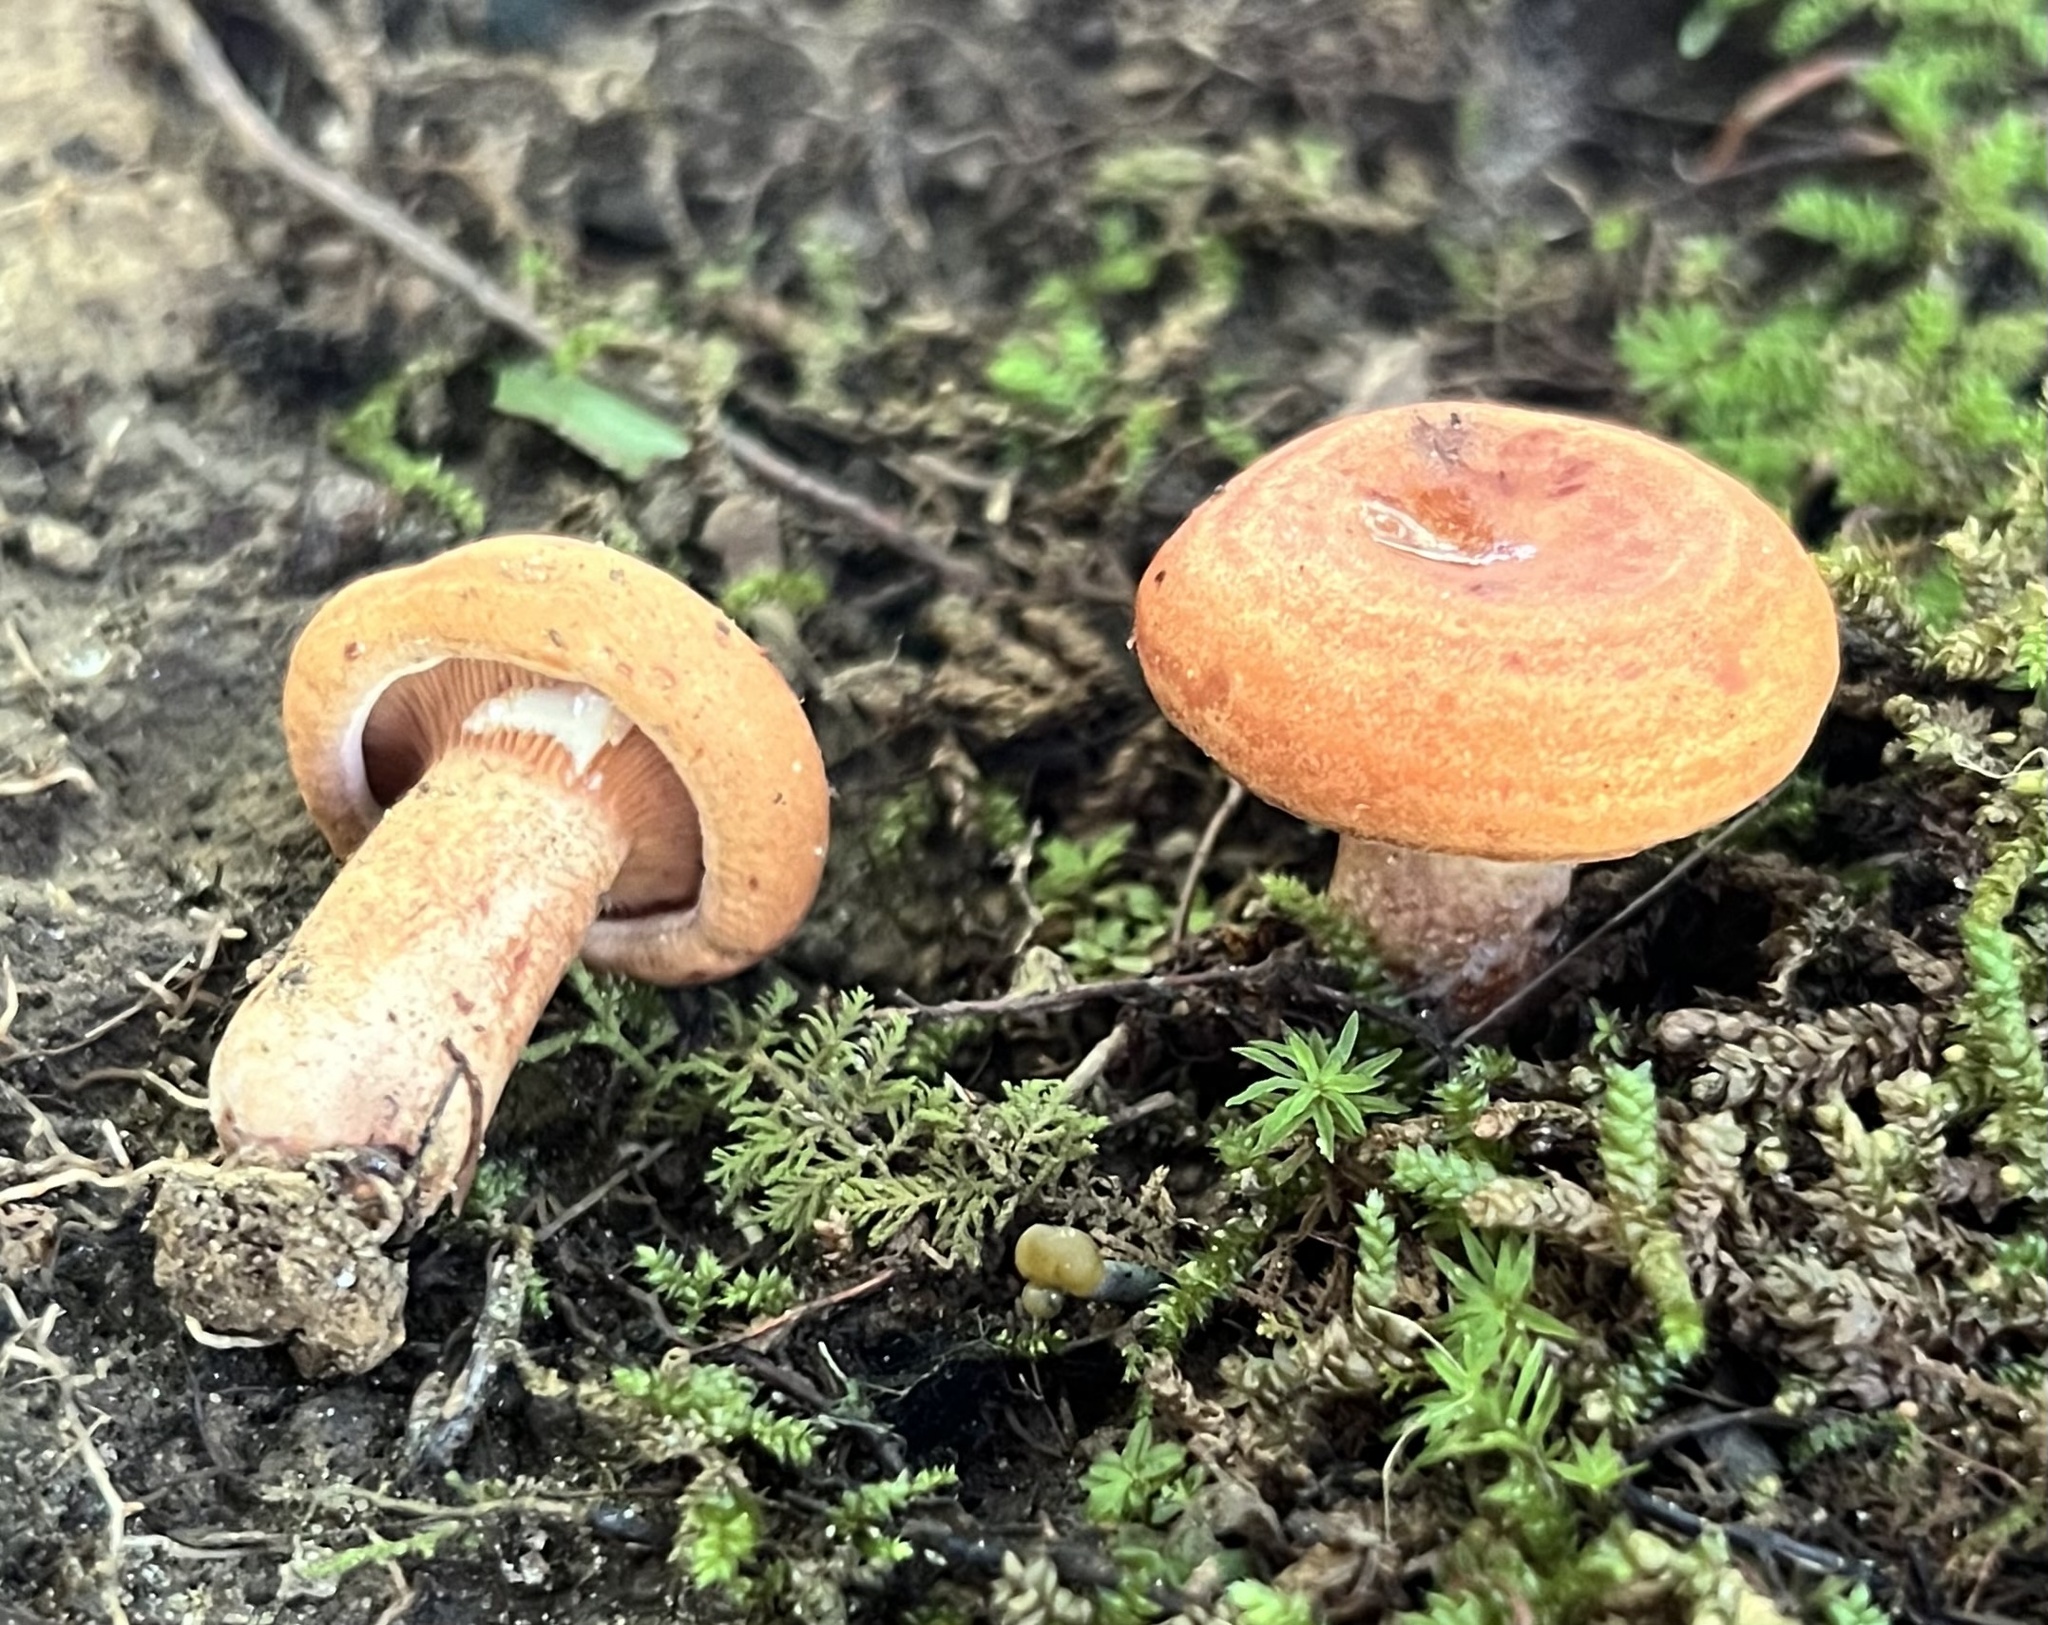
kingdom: Fungi
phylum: Basidiomycota
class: Agaricomycetes
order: Russulales
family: Russulaceae
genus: Lactarius
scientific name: Lactarius peckii
